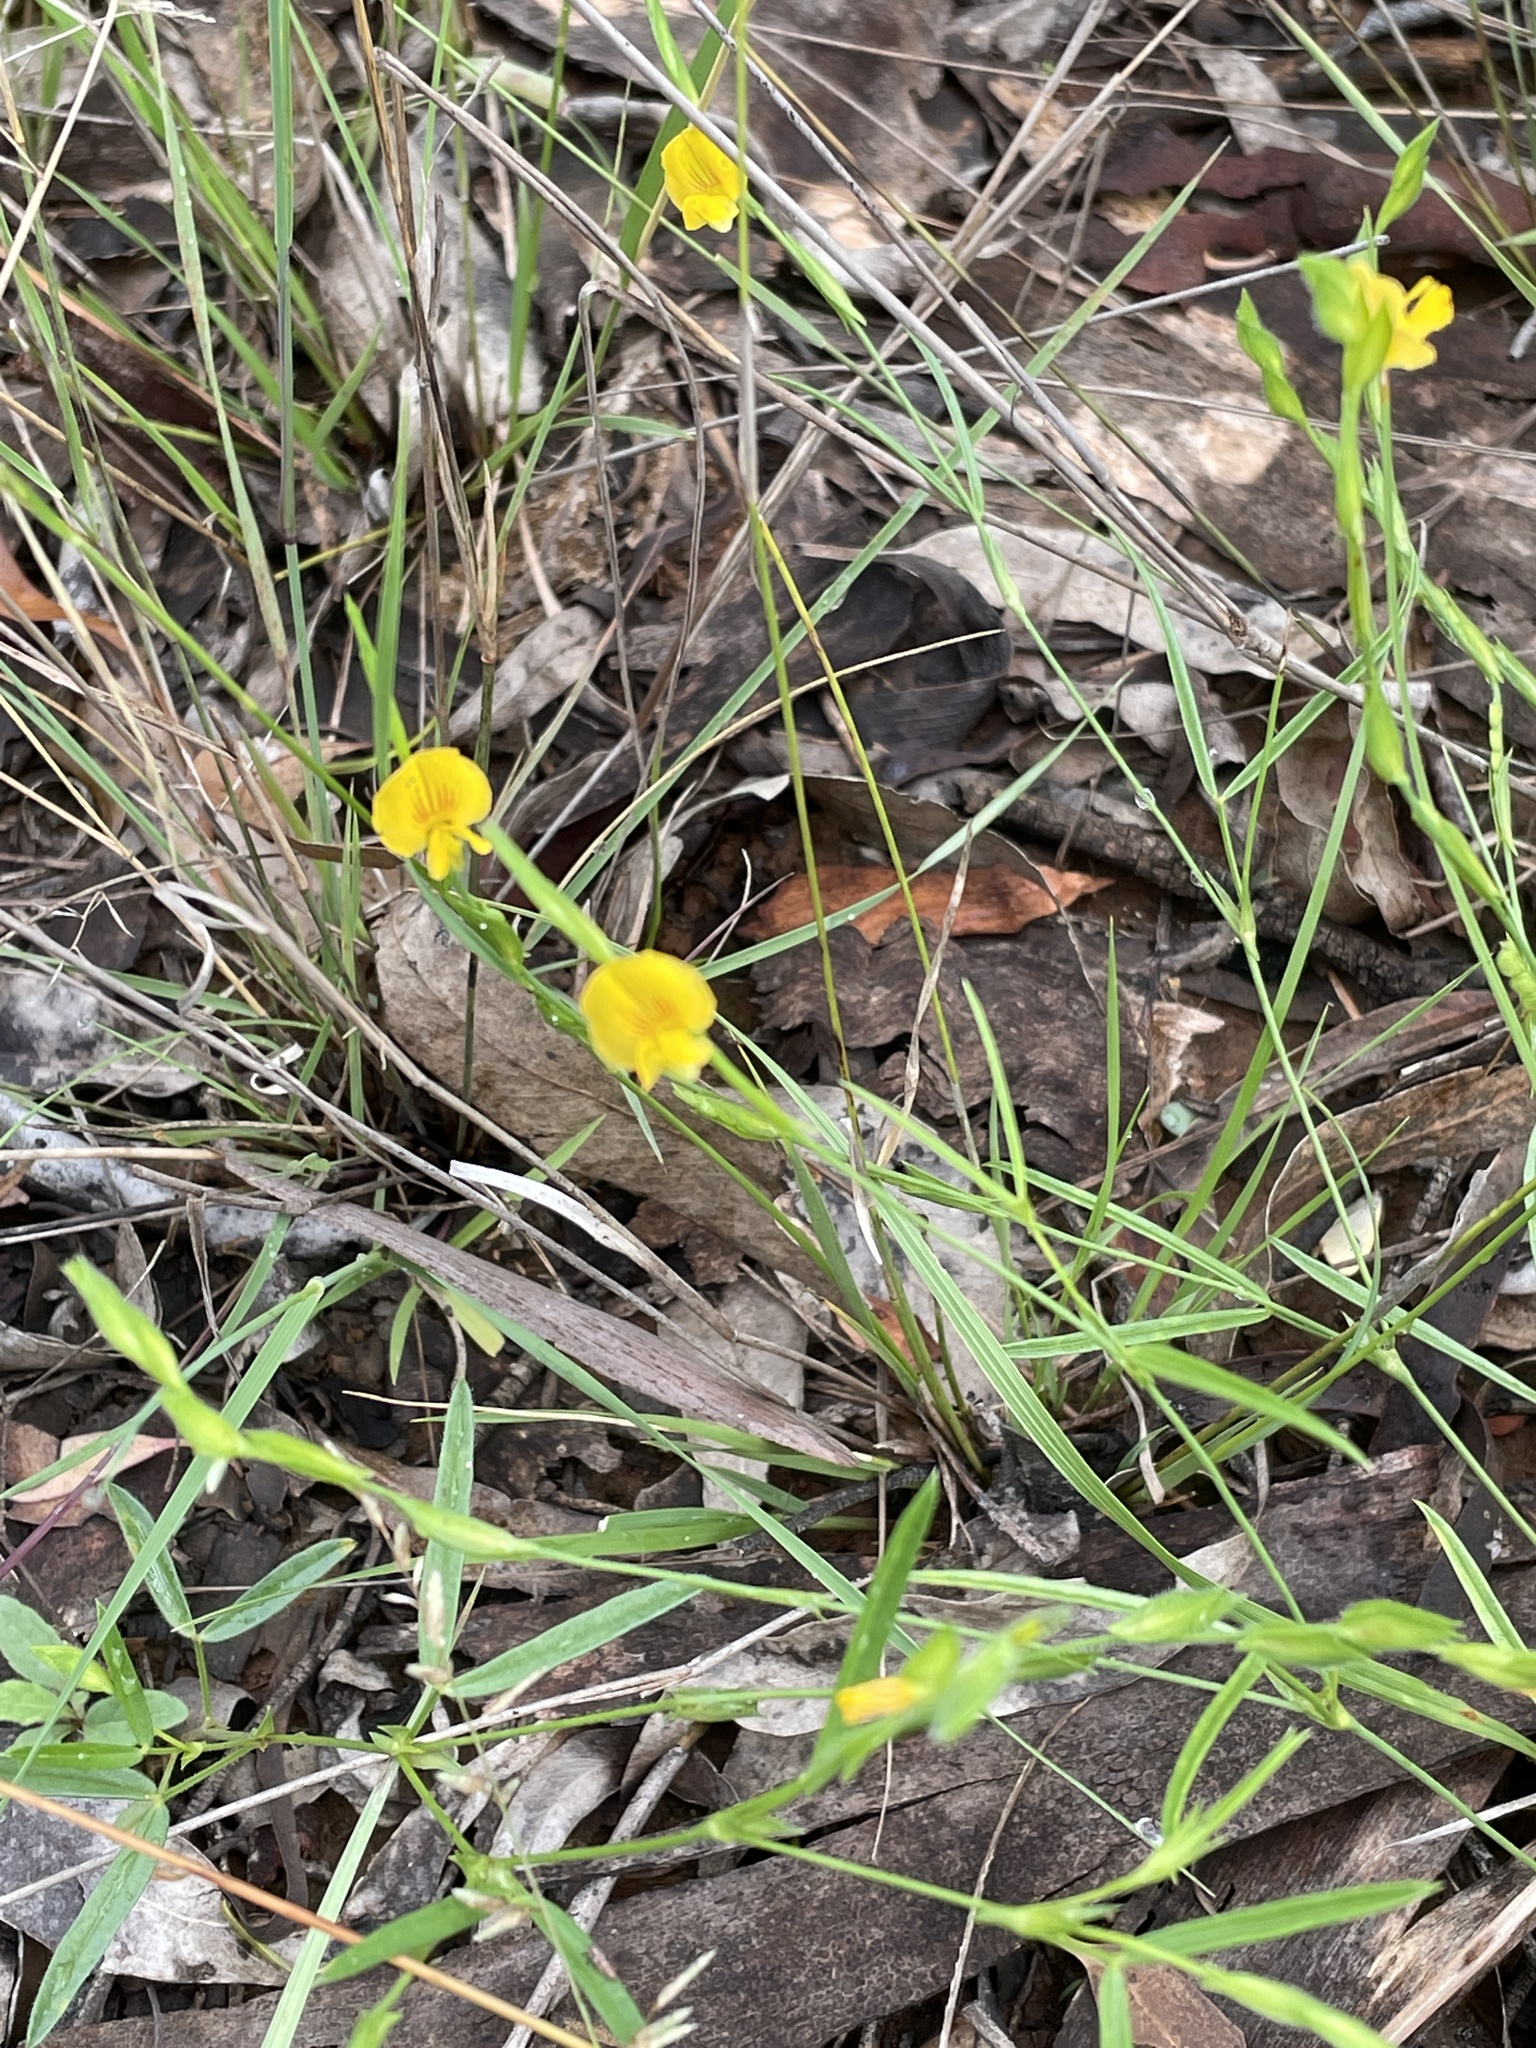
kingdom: Plantae
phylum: Tracheophyta
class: Magnoliopsida
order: Fabales
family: Fabaceae
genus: Zornia
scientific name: Zornia dyctiocarpa
